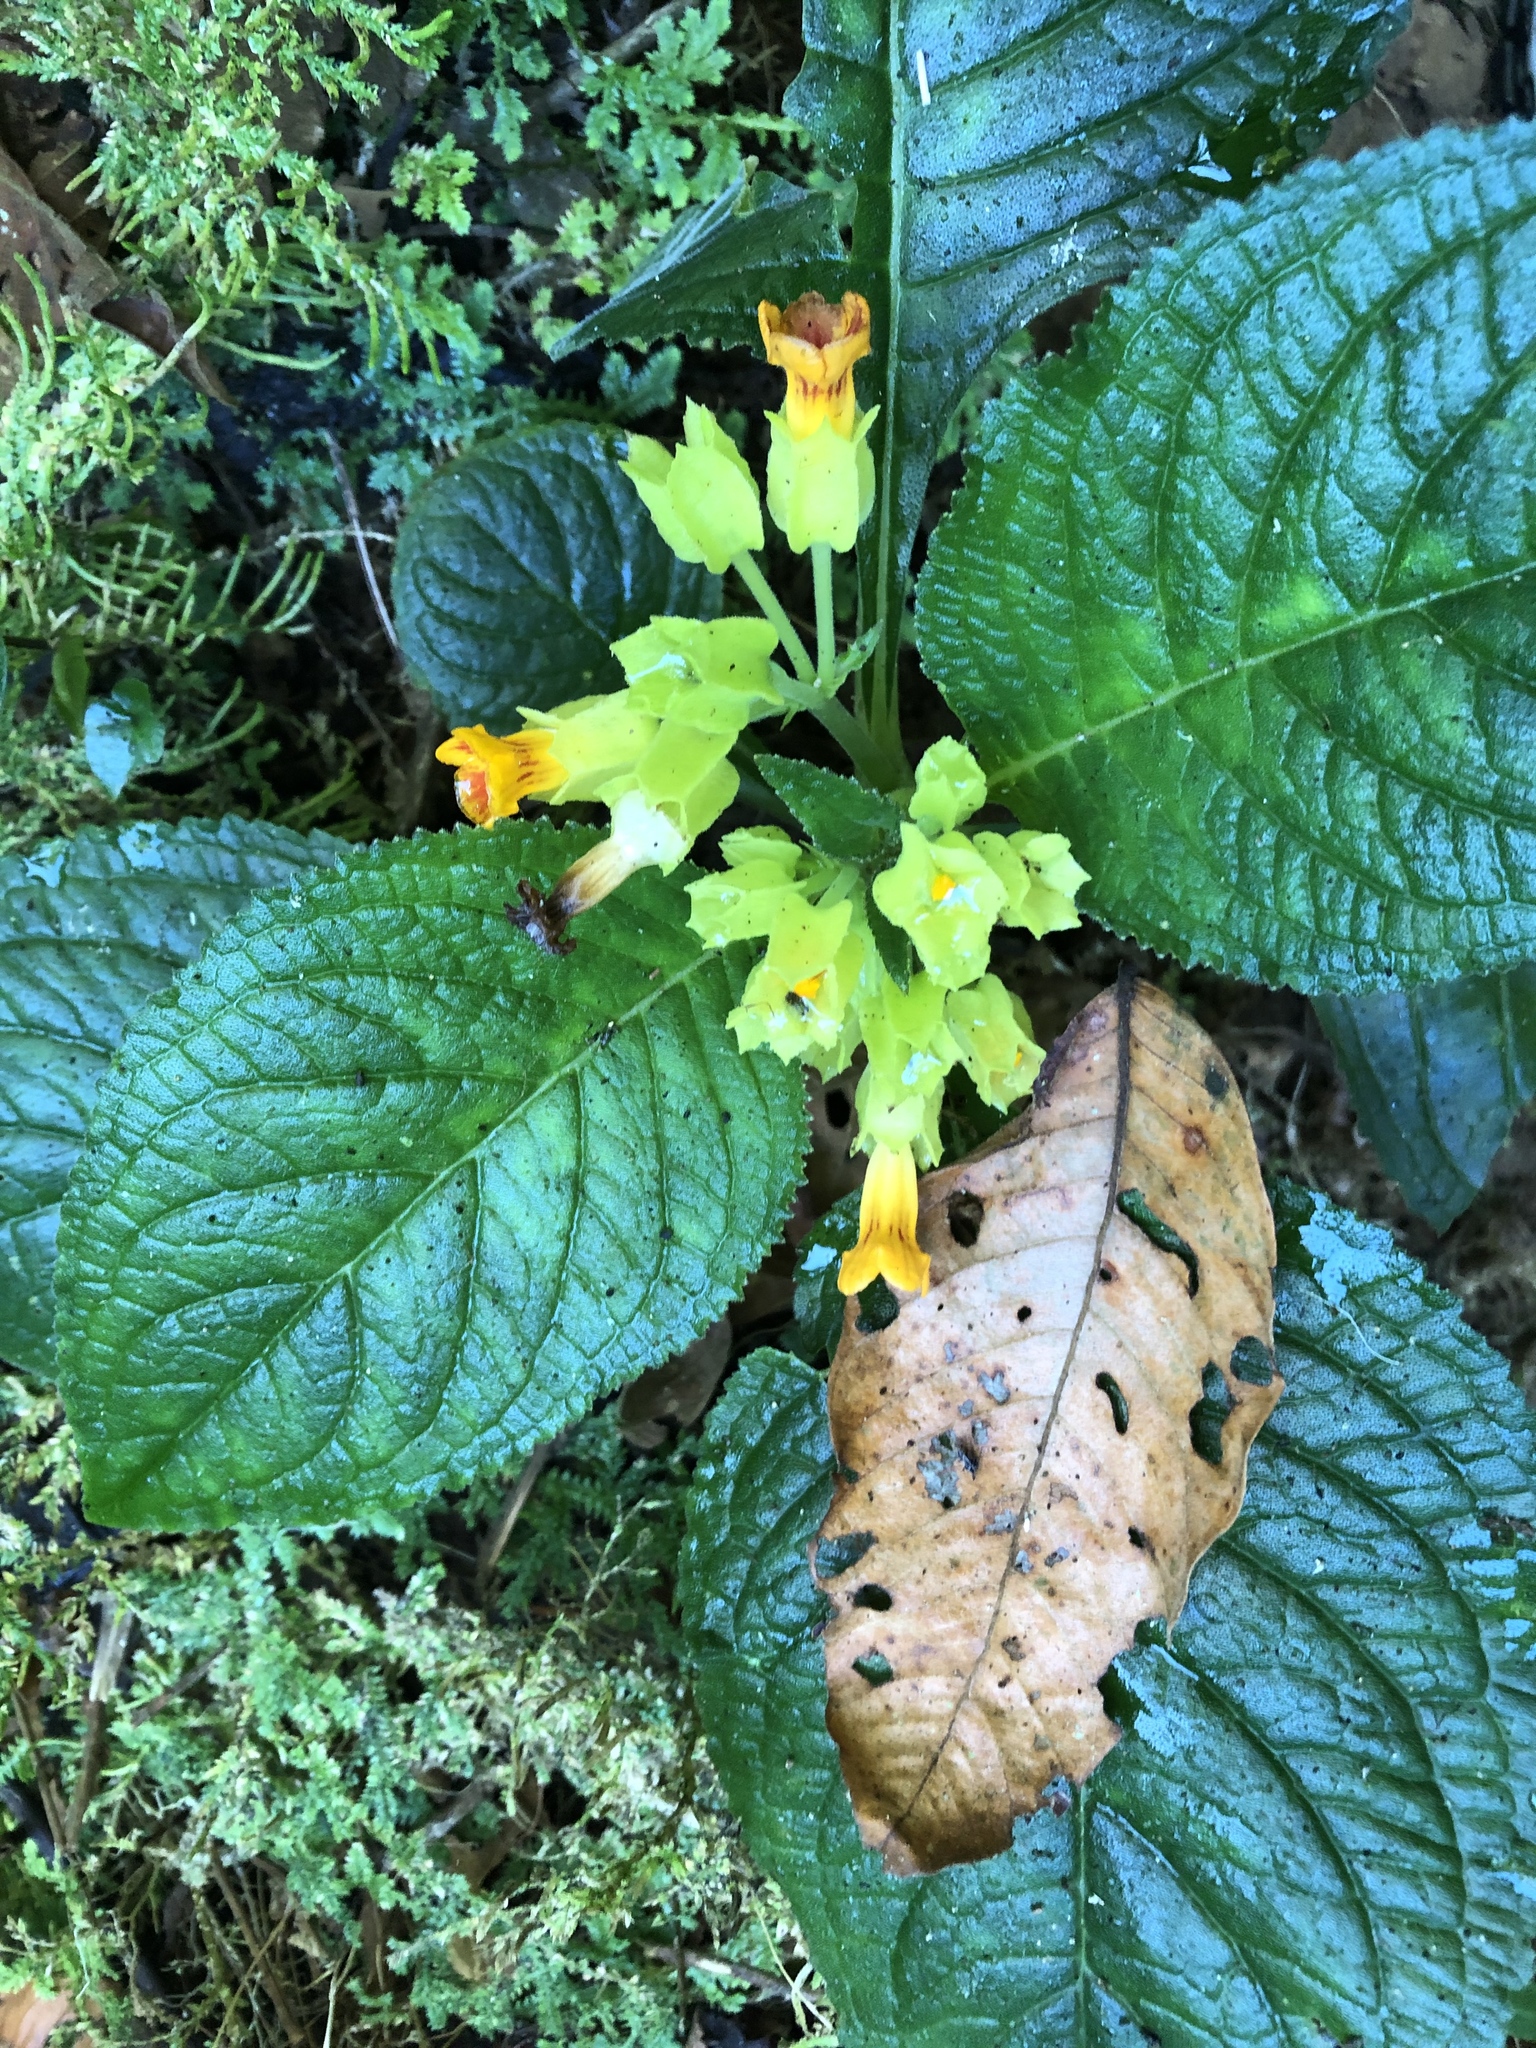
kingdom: Plantae
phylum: Tracheophyta
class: Magnoliopsida
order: Lamiales
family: Gesneriaceae
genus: Chrysothemis
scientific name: Chrysothemis friedrichsthaliana
